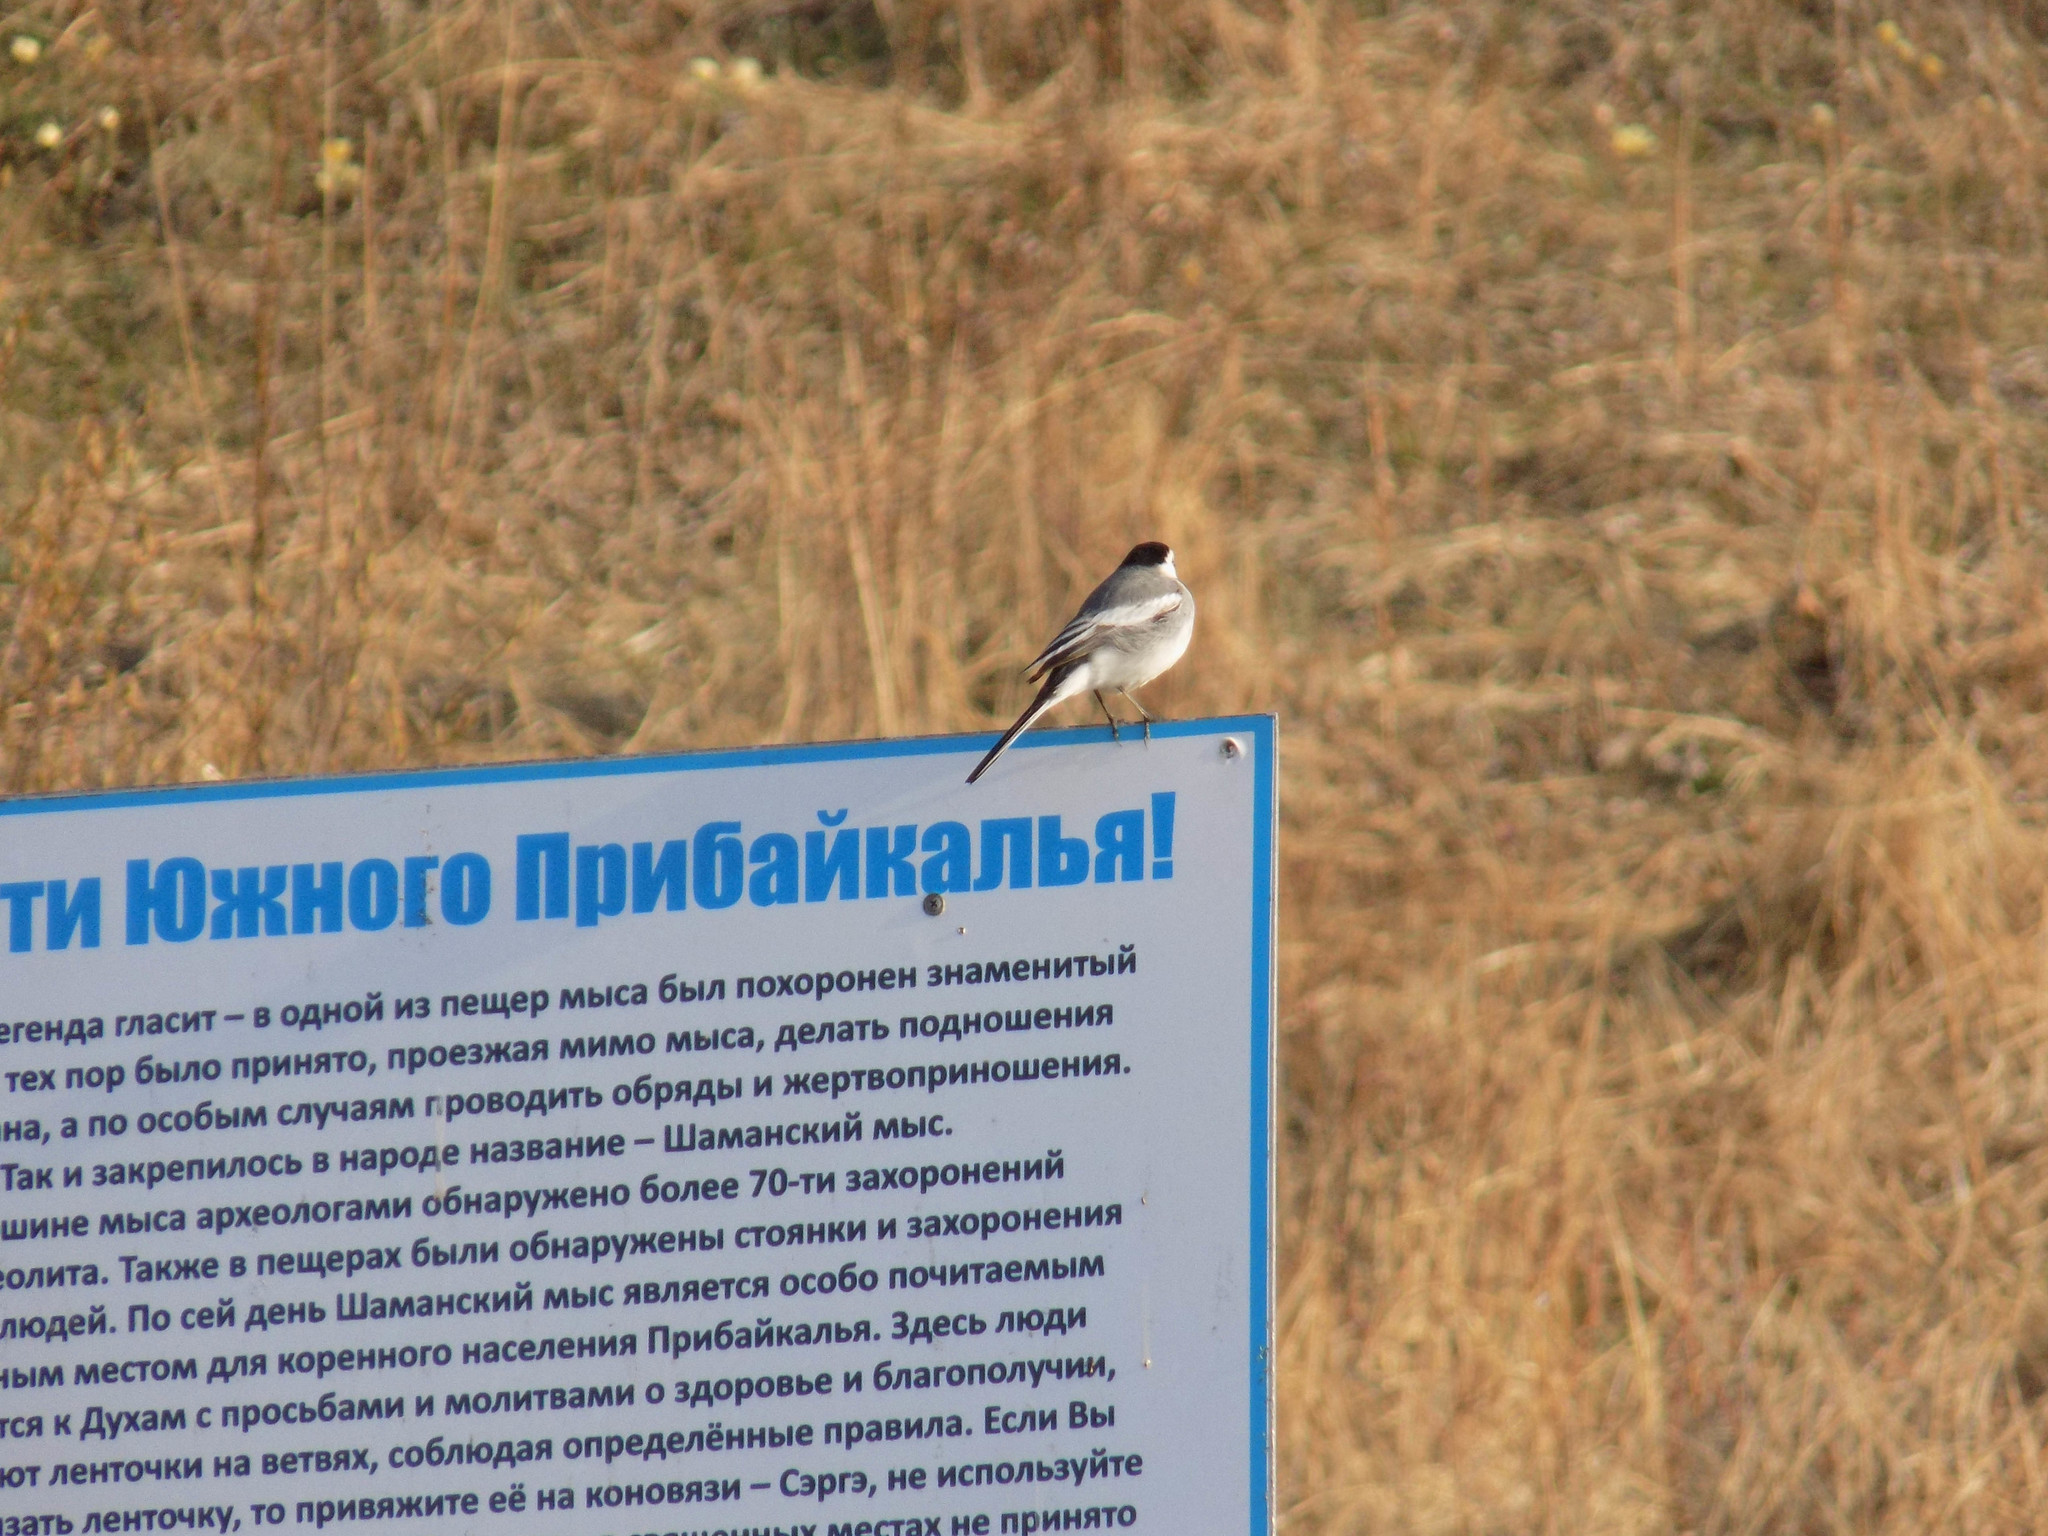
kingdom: Animalia
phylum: Chordata
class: Aves
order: Passeriformes
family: Motacillidae
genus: Motacilla
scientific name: Motacilla alba
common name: White wagtail
